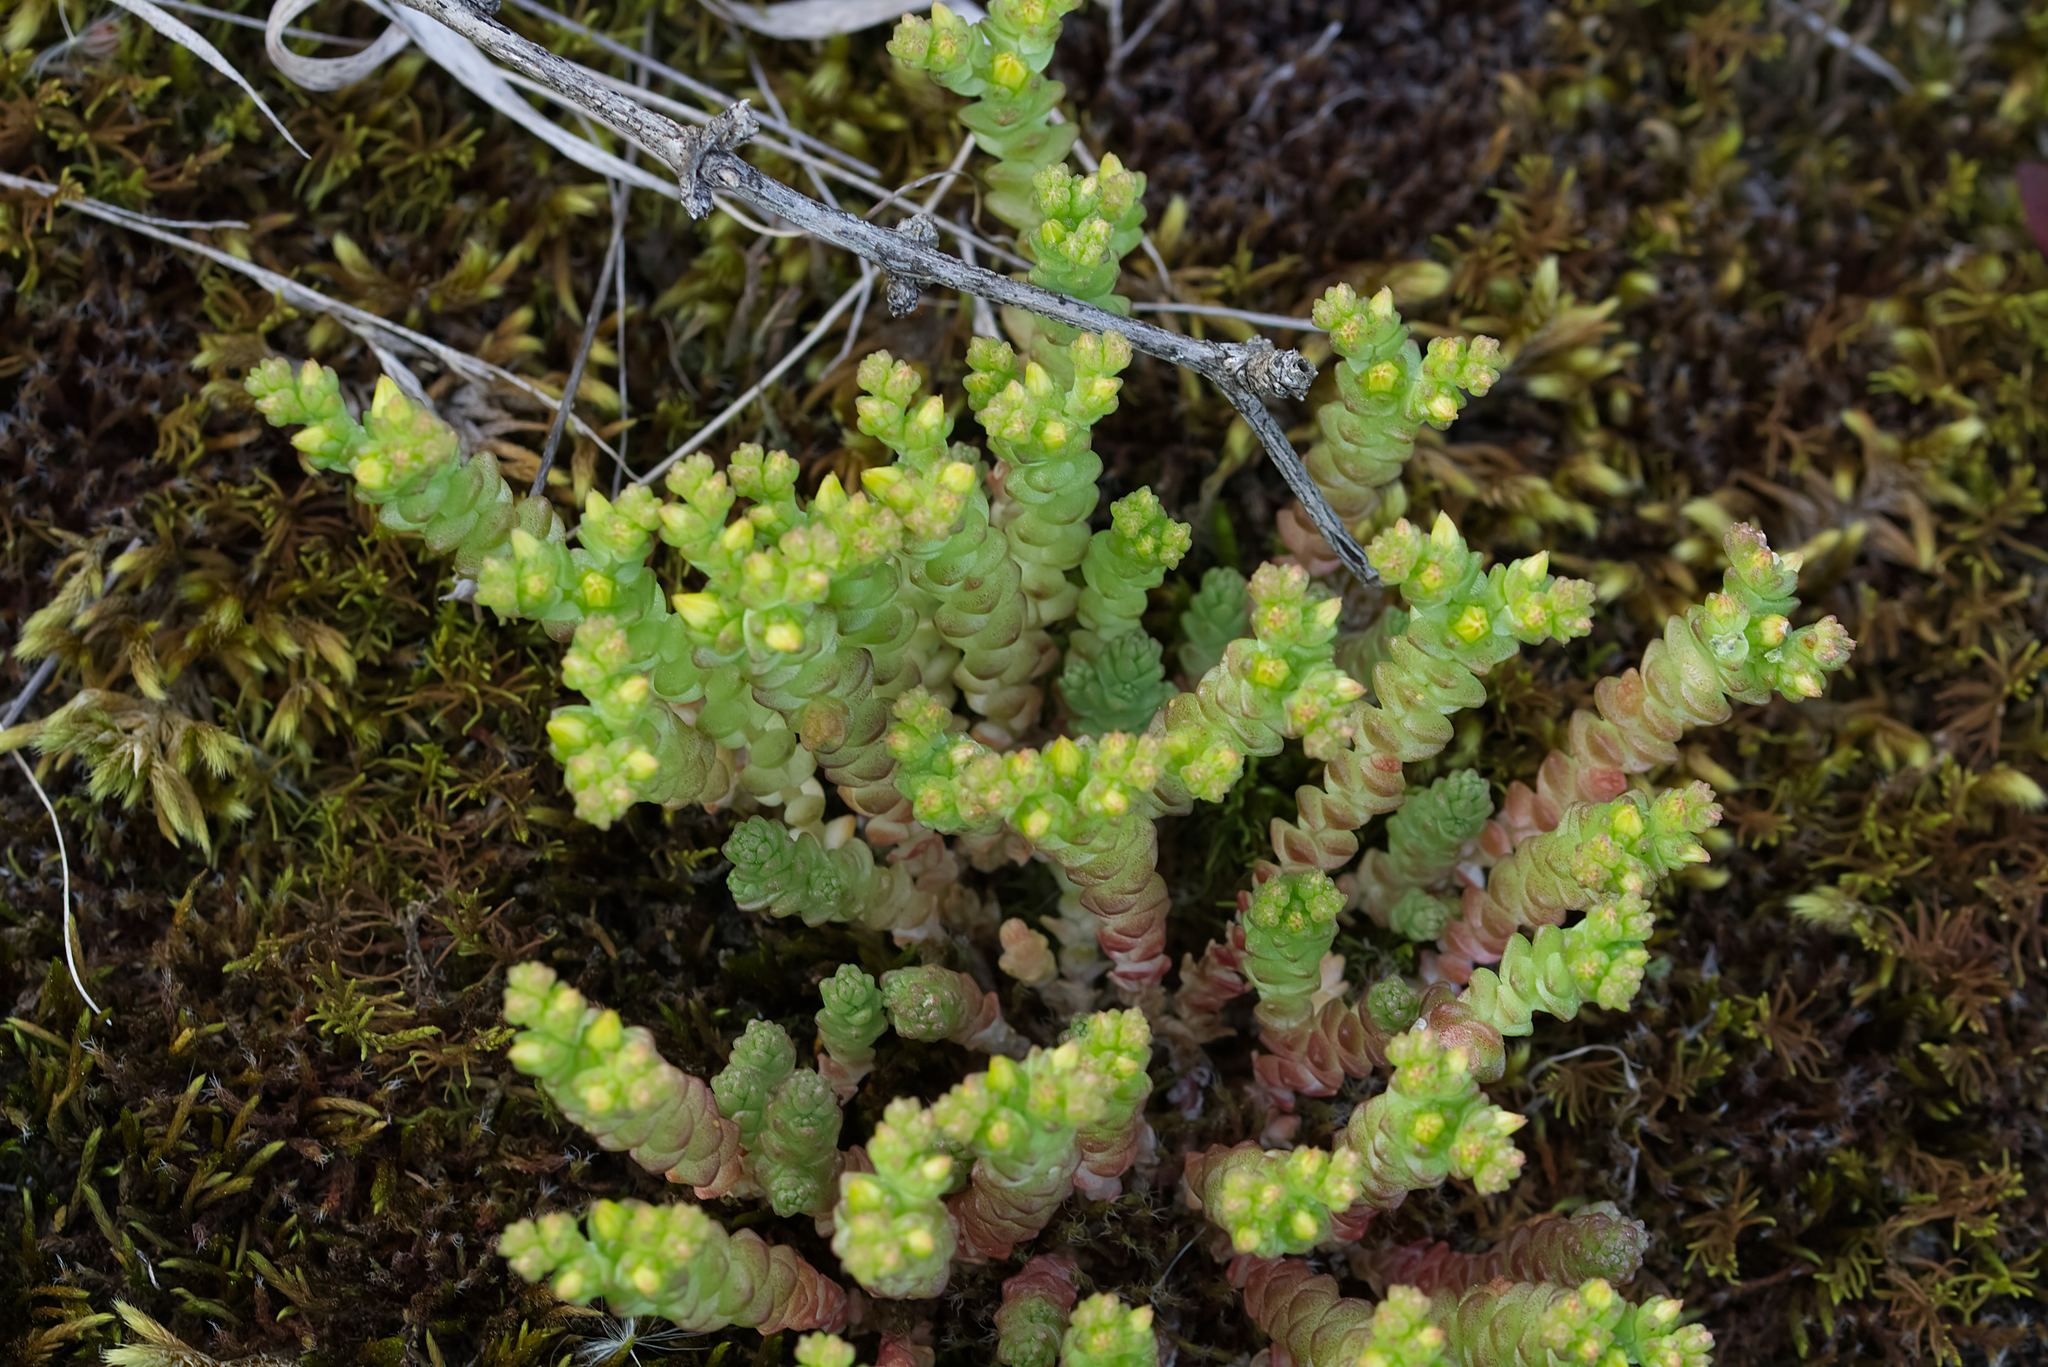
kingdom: Plantae
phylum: Tracheophyta
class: Magnoliopsida
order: Saxifragales
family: Crassulaceae
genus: Sedum
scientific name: Sedum acre
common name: Biting stonecrop
